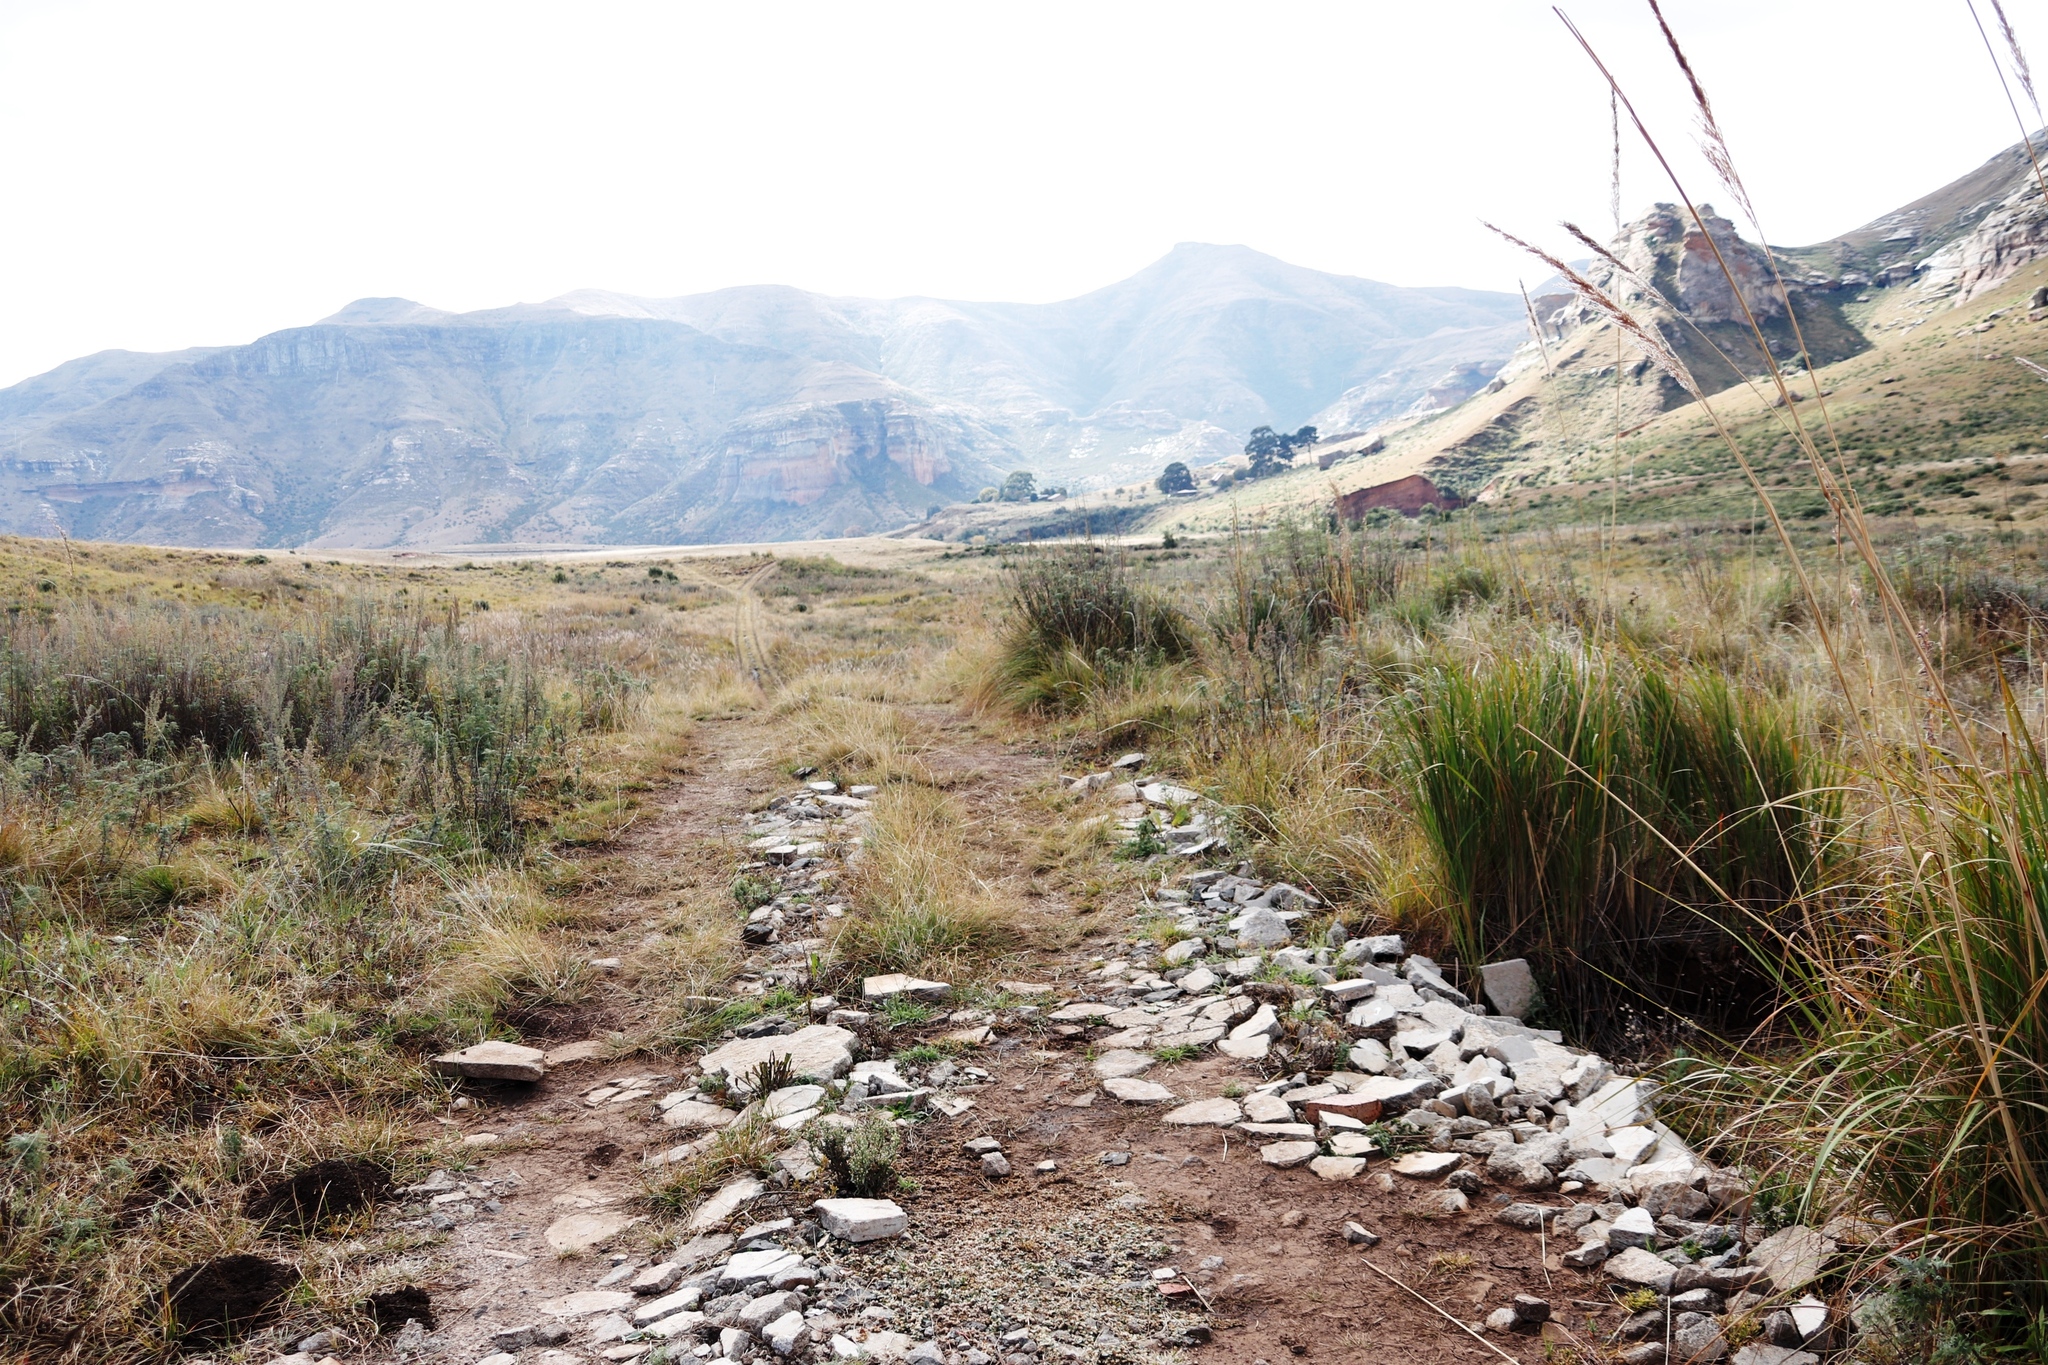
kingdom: Plantae
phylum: Tracheophyta
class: Liliopsida
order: Poales
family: Poaceae
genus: Miscanthus
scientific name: Miscanthus ecklonii
